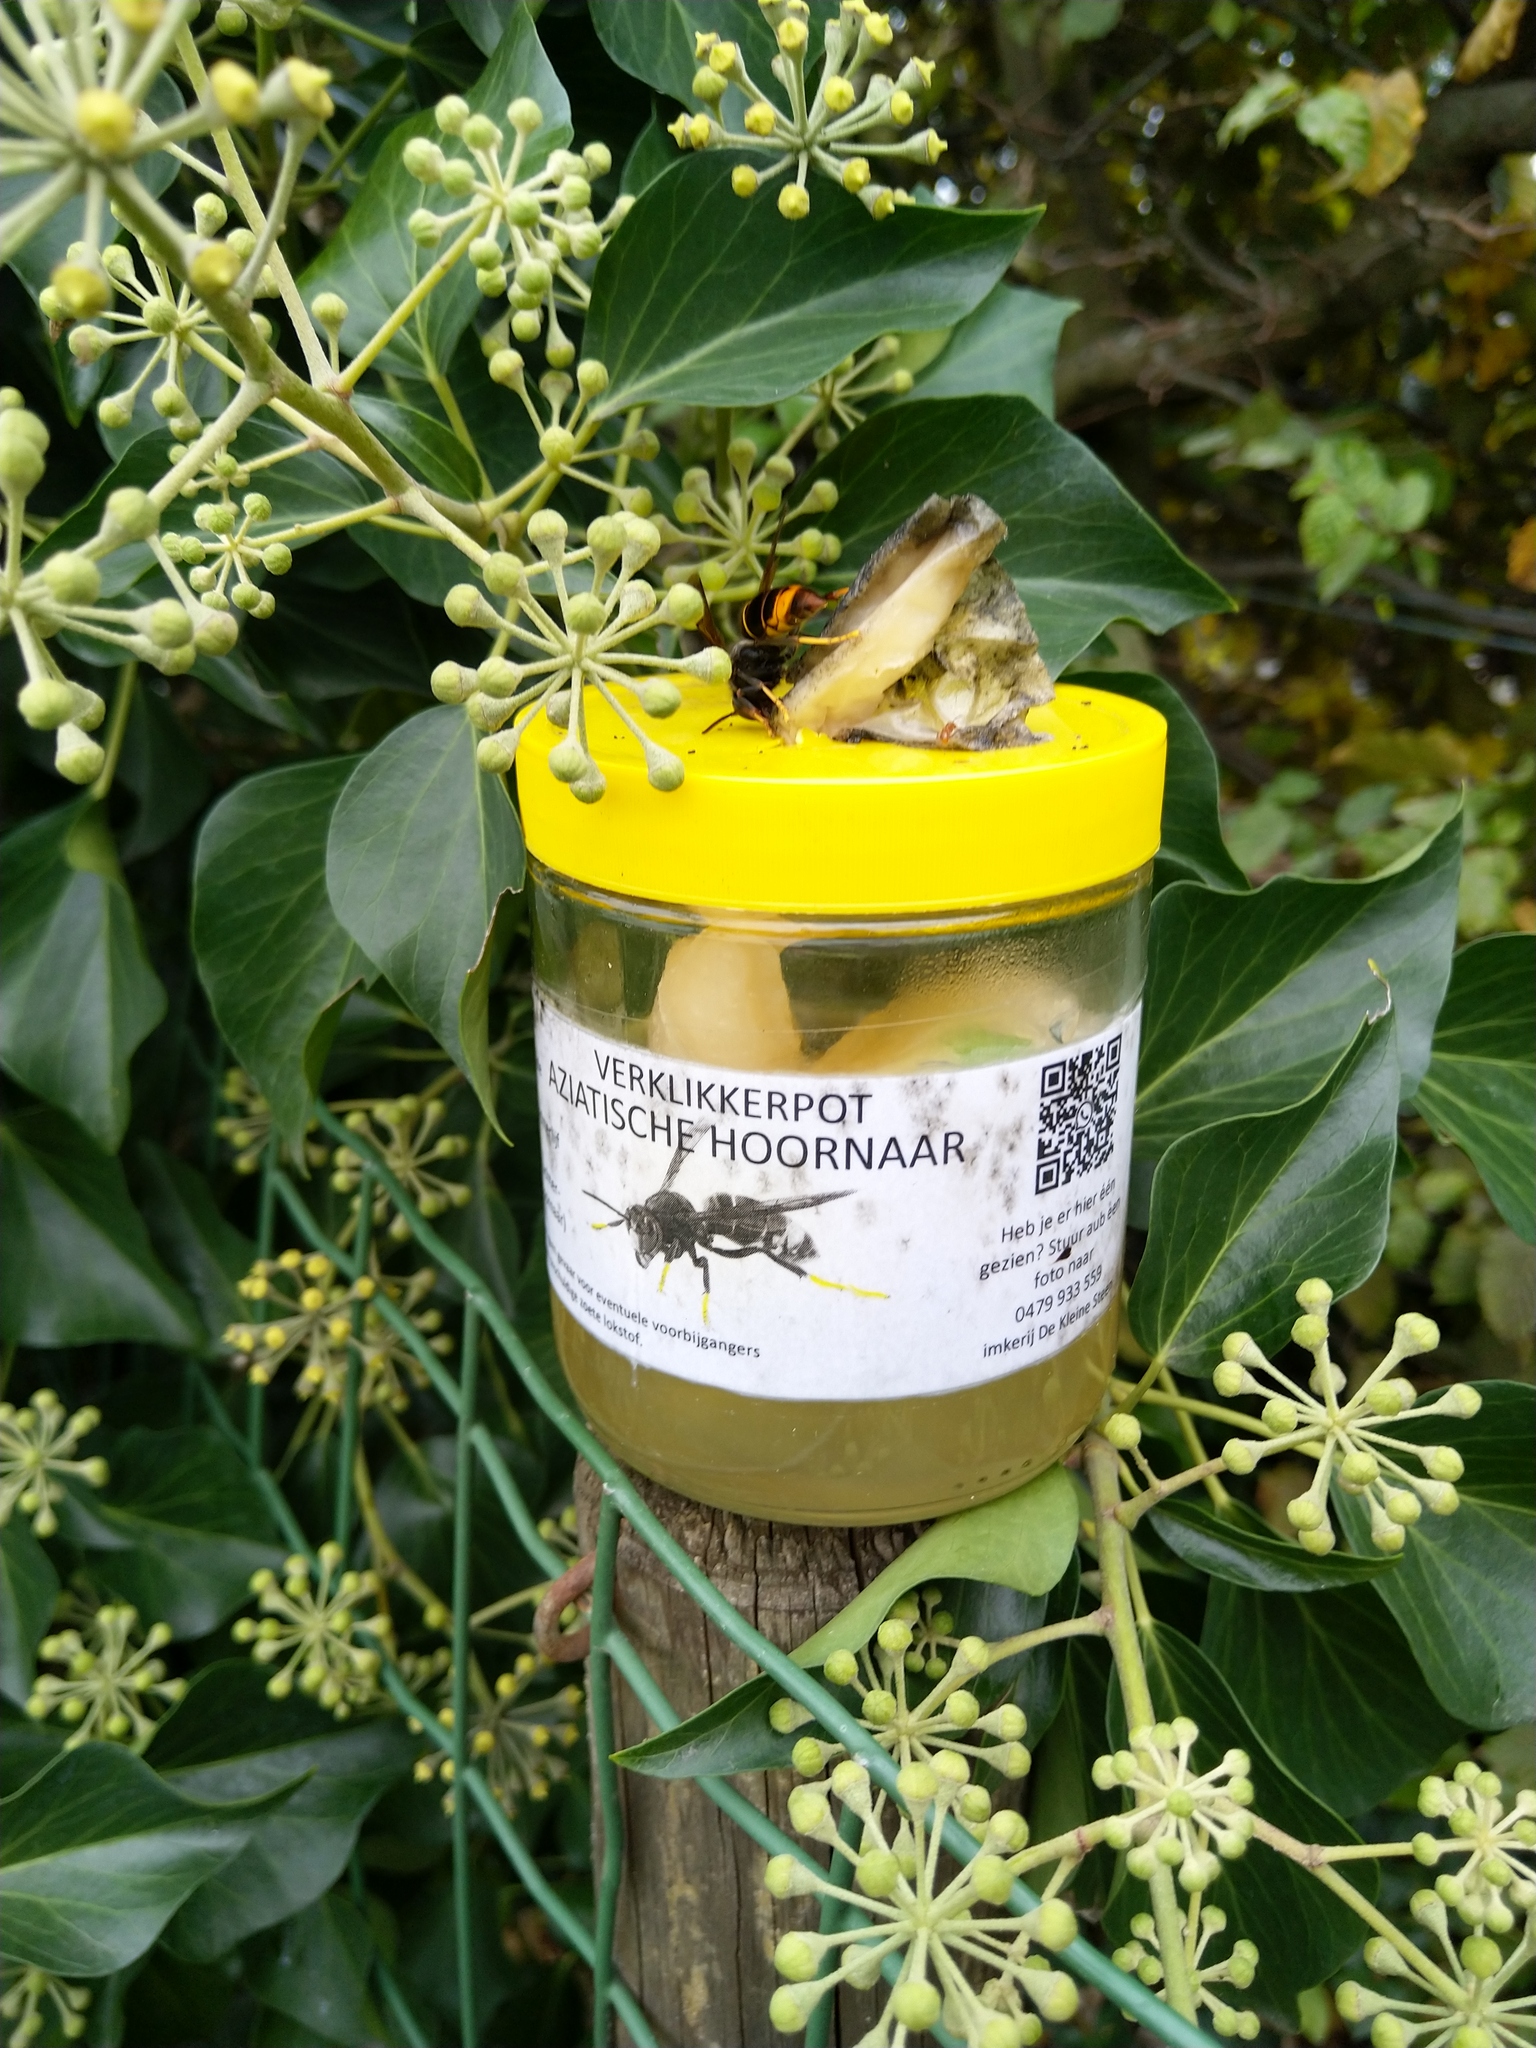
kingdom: Animalia
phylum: Arthropoda
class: Insecta
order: Hymenoptera
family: Vespidae
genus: Vespa
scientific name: Vespa velutina
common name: Asian hornet
